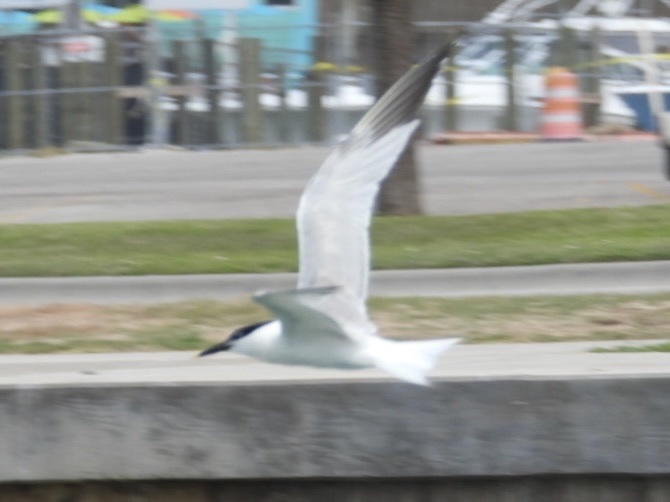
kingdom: Animalia
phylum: Chordata
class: Aves
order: Charadriiformes
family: Laridae
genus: Thalasseus
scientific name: Thalasseus sandvicensis
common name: Sandwich tern
